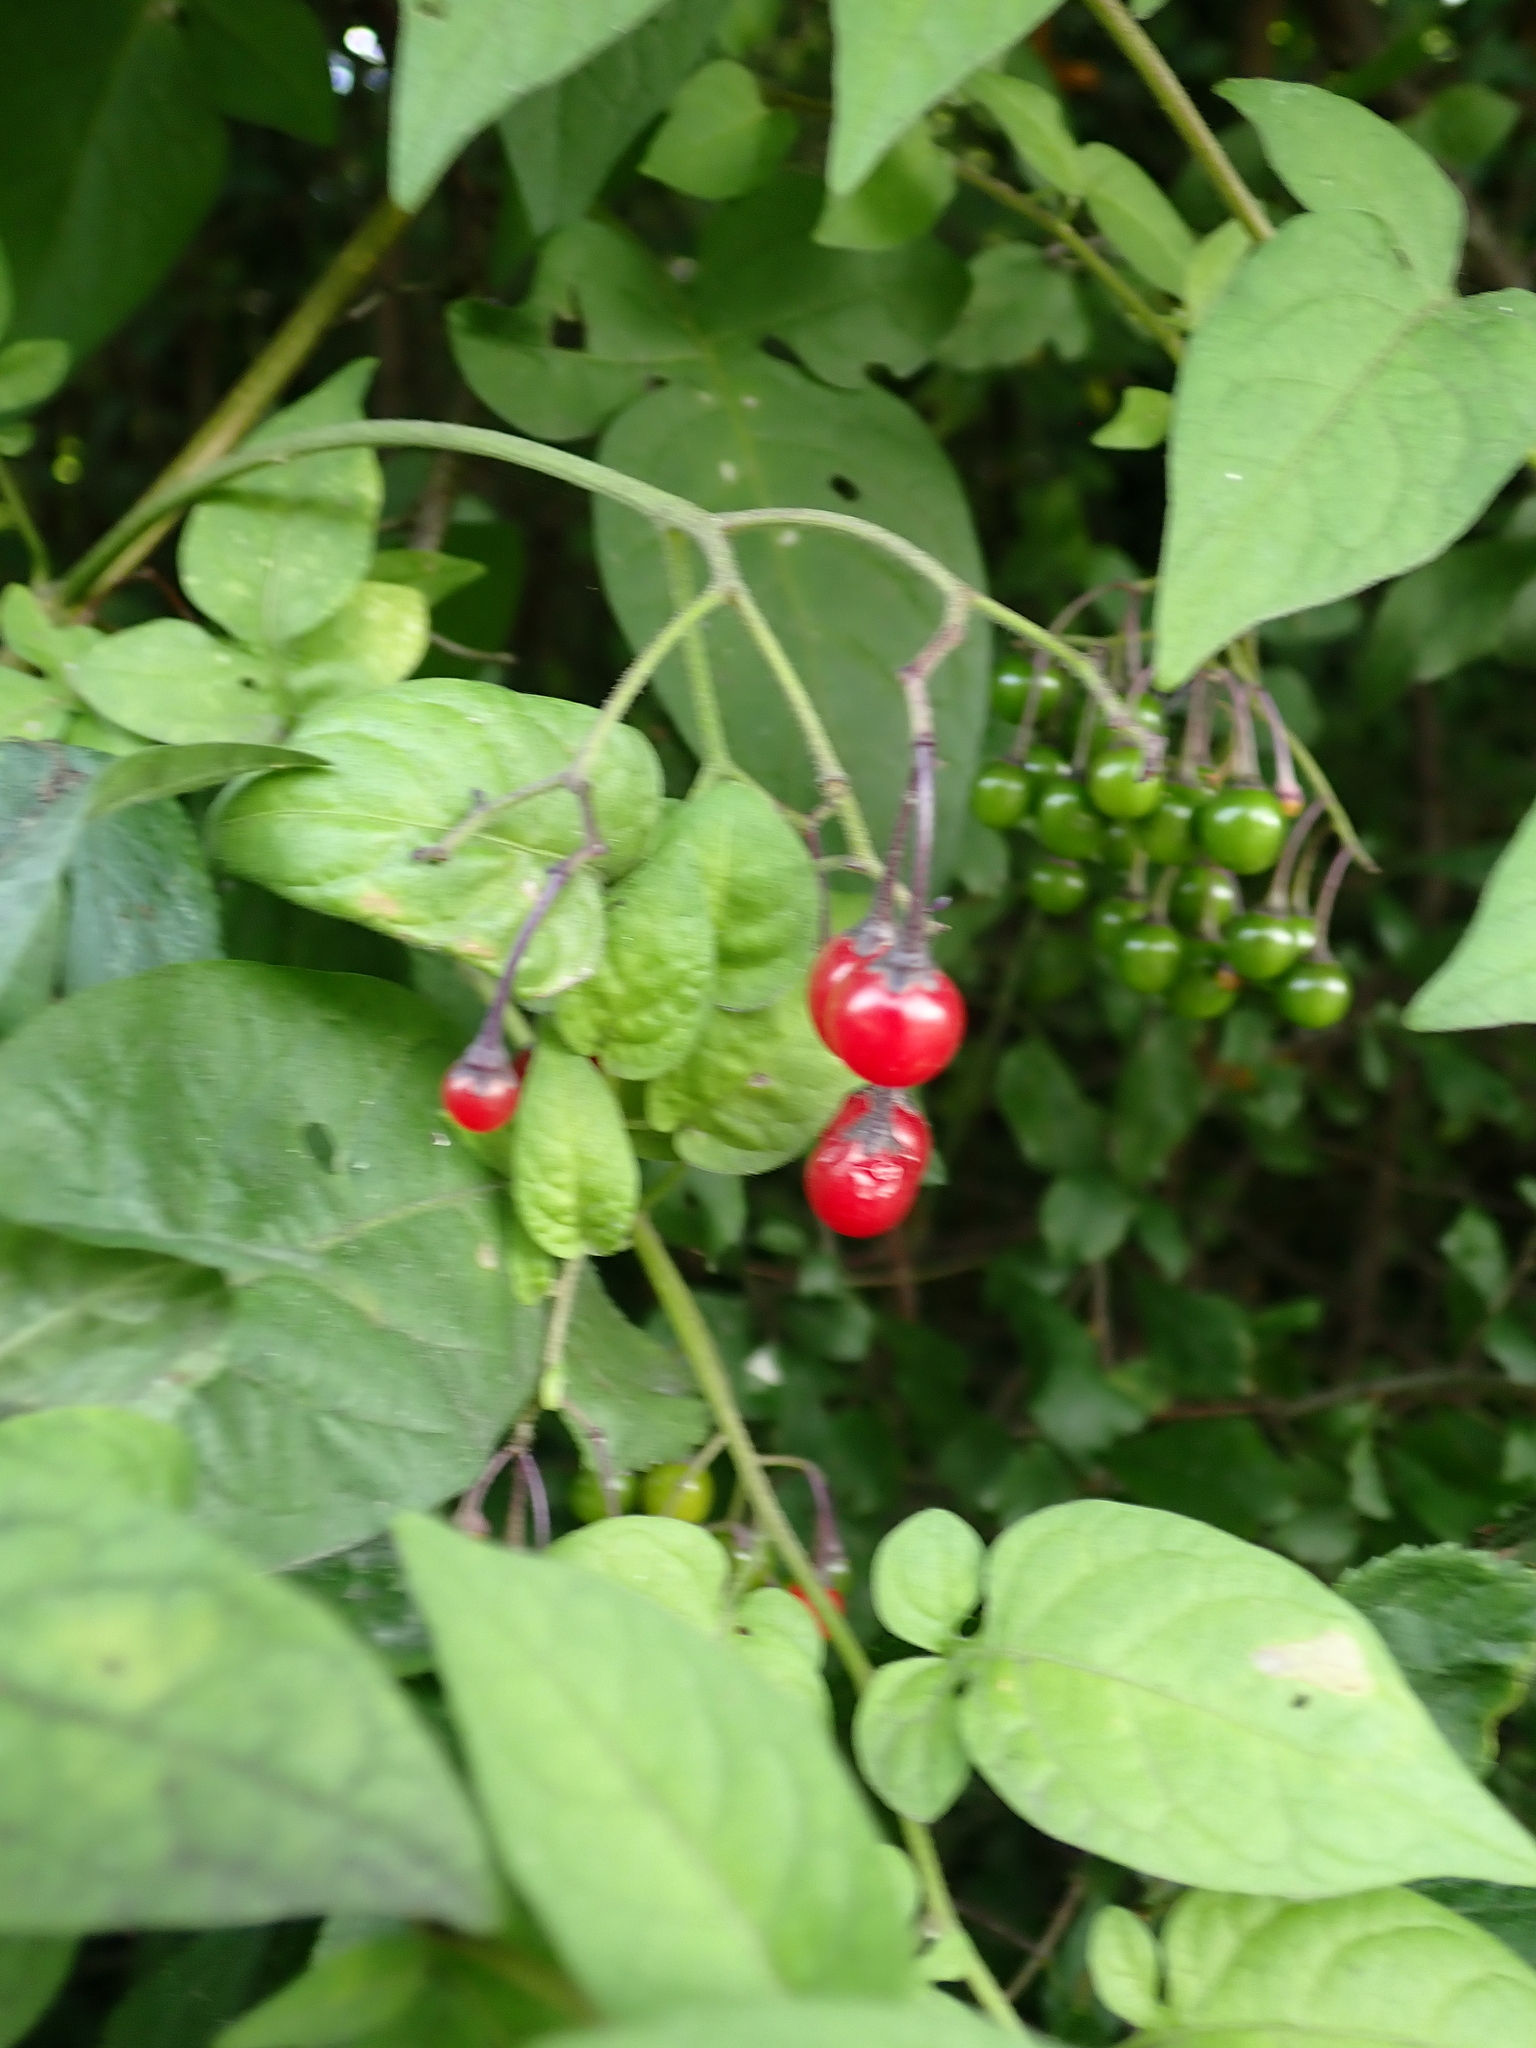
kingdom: Plantae
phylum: Tracheophyta
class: Magnoliopsida
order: Solanales
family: Solanaceae
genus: Solanum
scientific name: Solanum dulcamara
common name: Climbing nightshade
